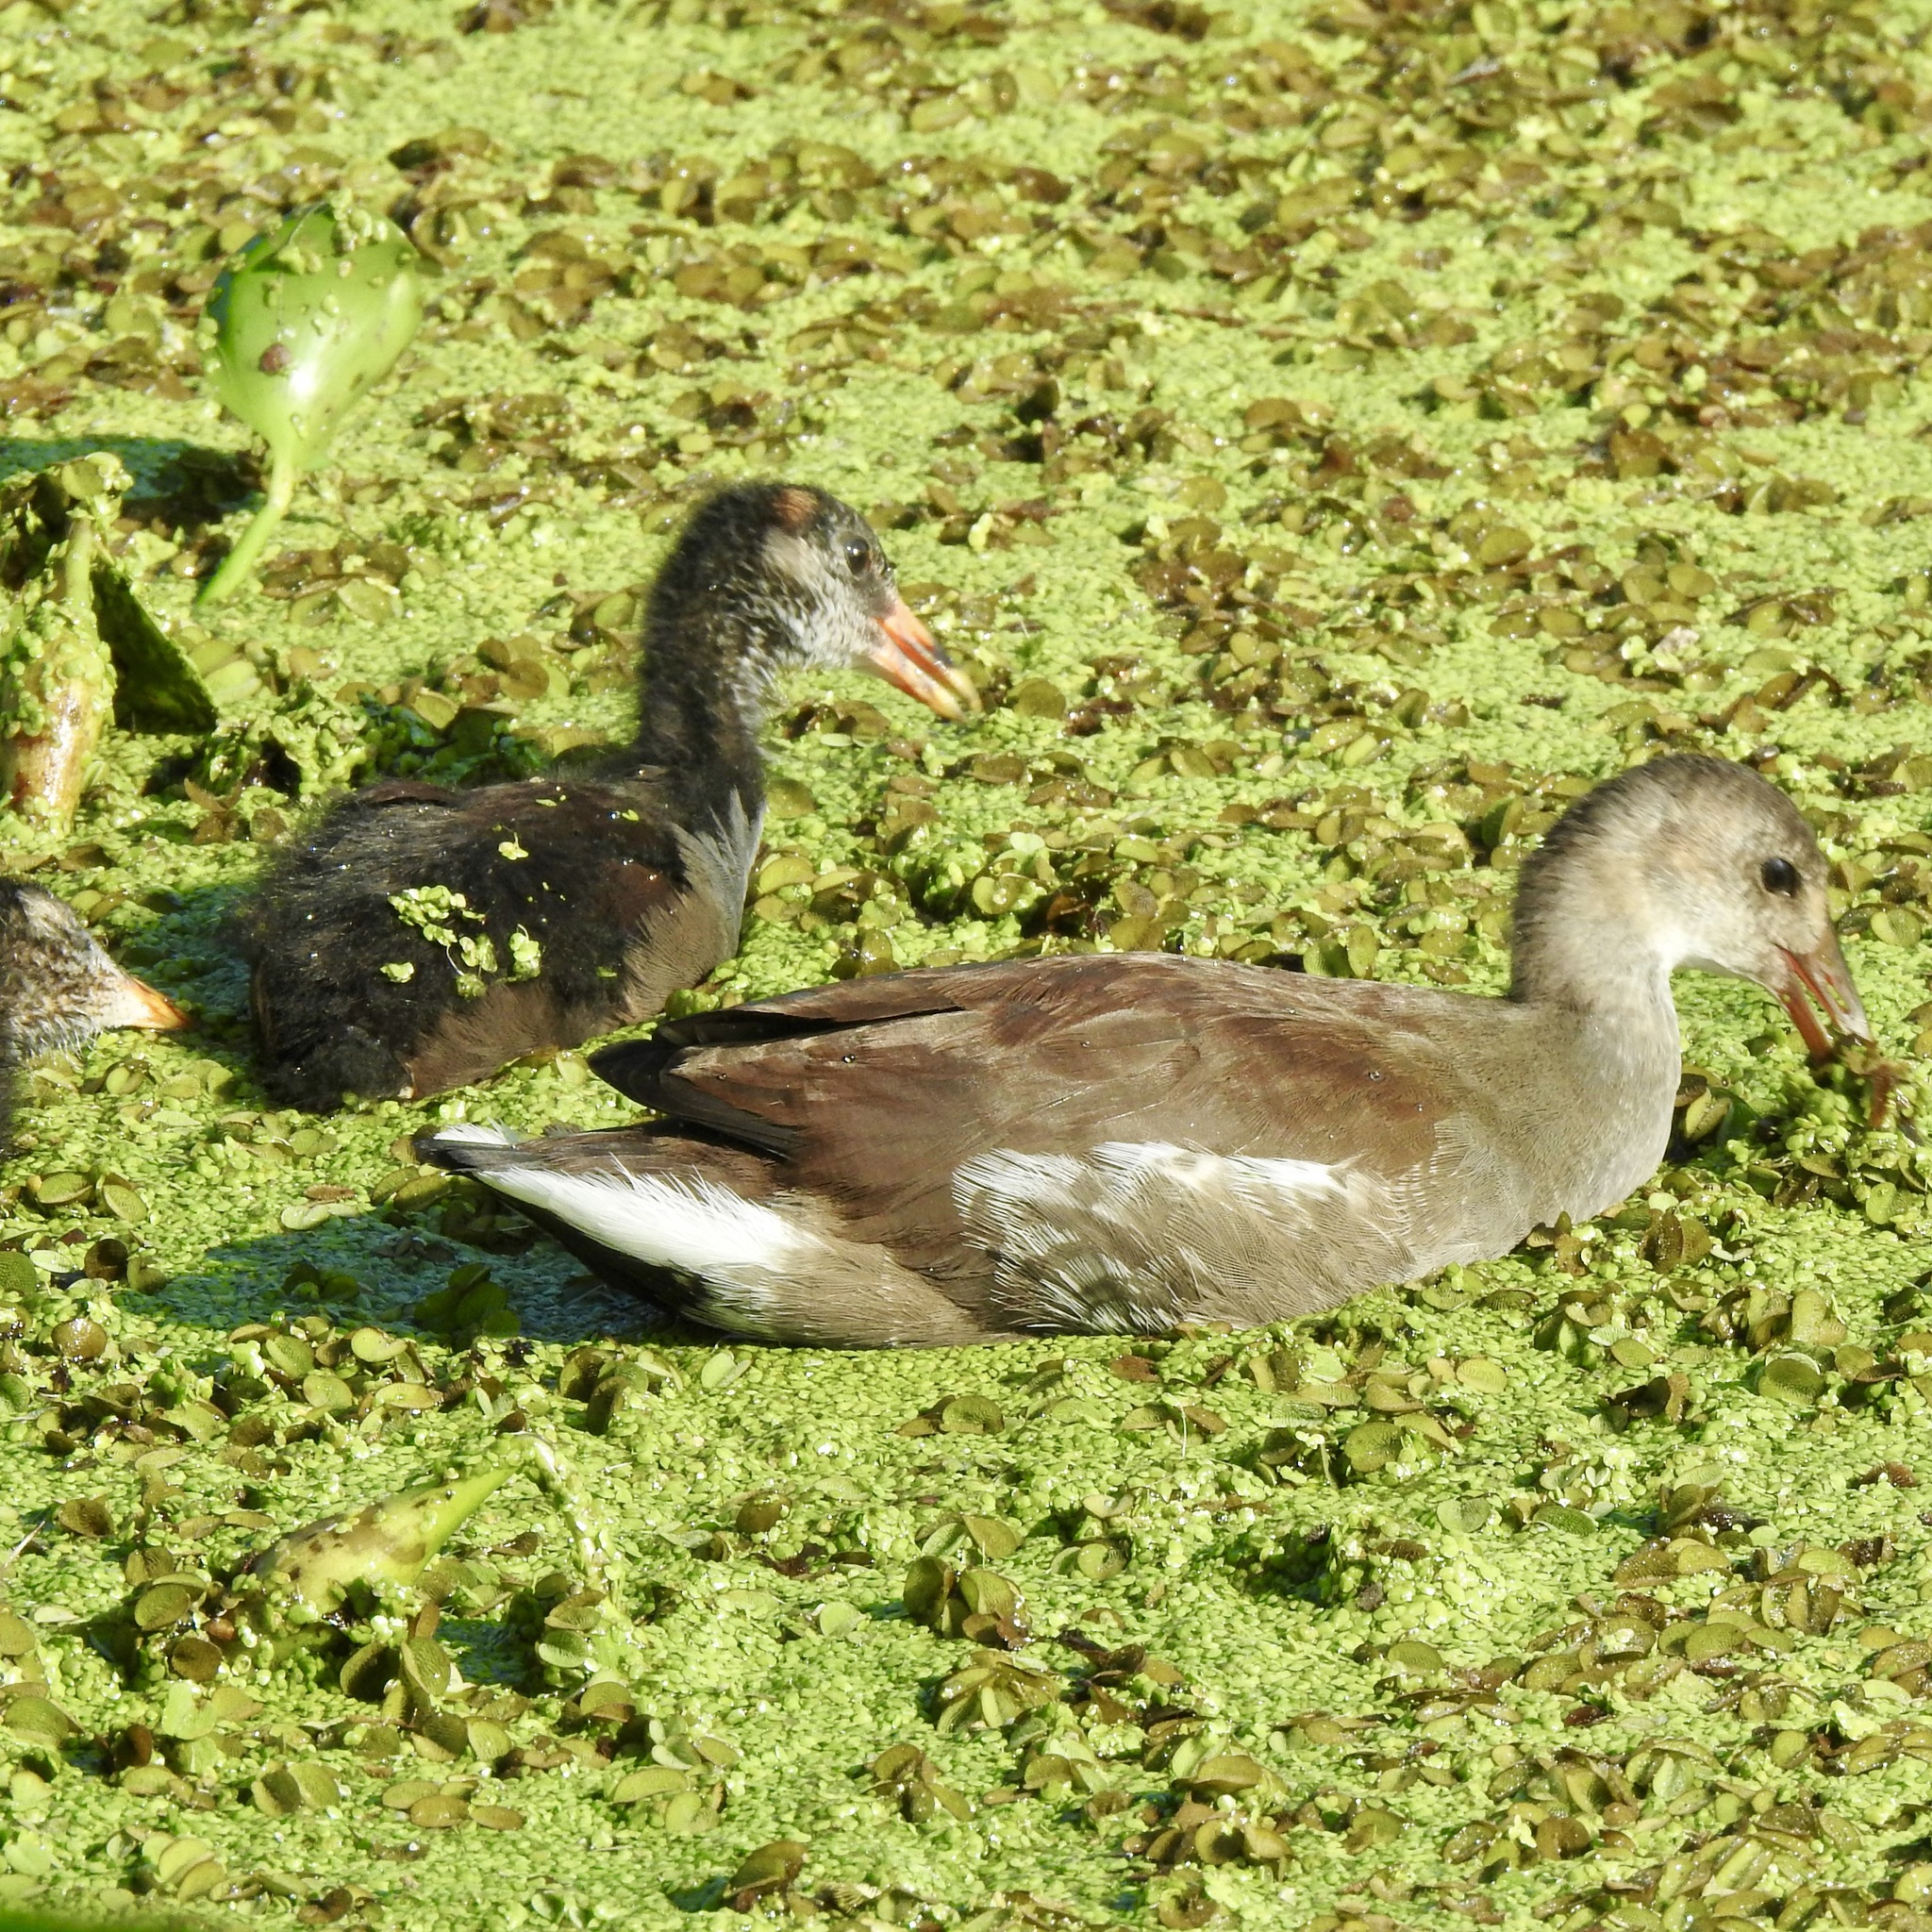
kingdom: Animalia
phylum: Chordata
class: Aves
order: Gruiformes
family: Rallidae
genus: Gallinula
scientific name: Gallinula chloropus
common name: Common moorhen
